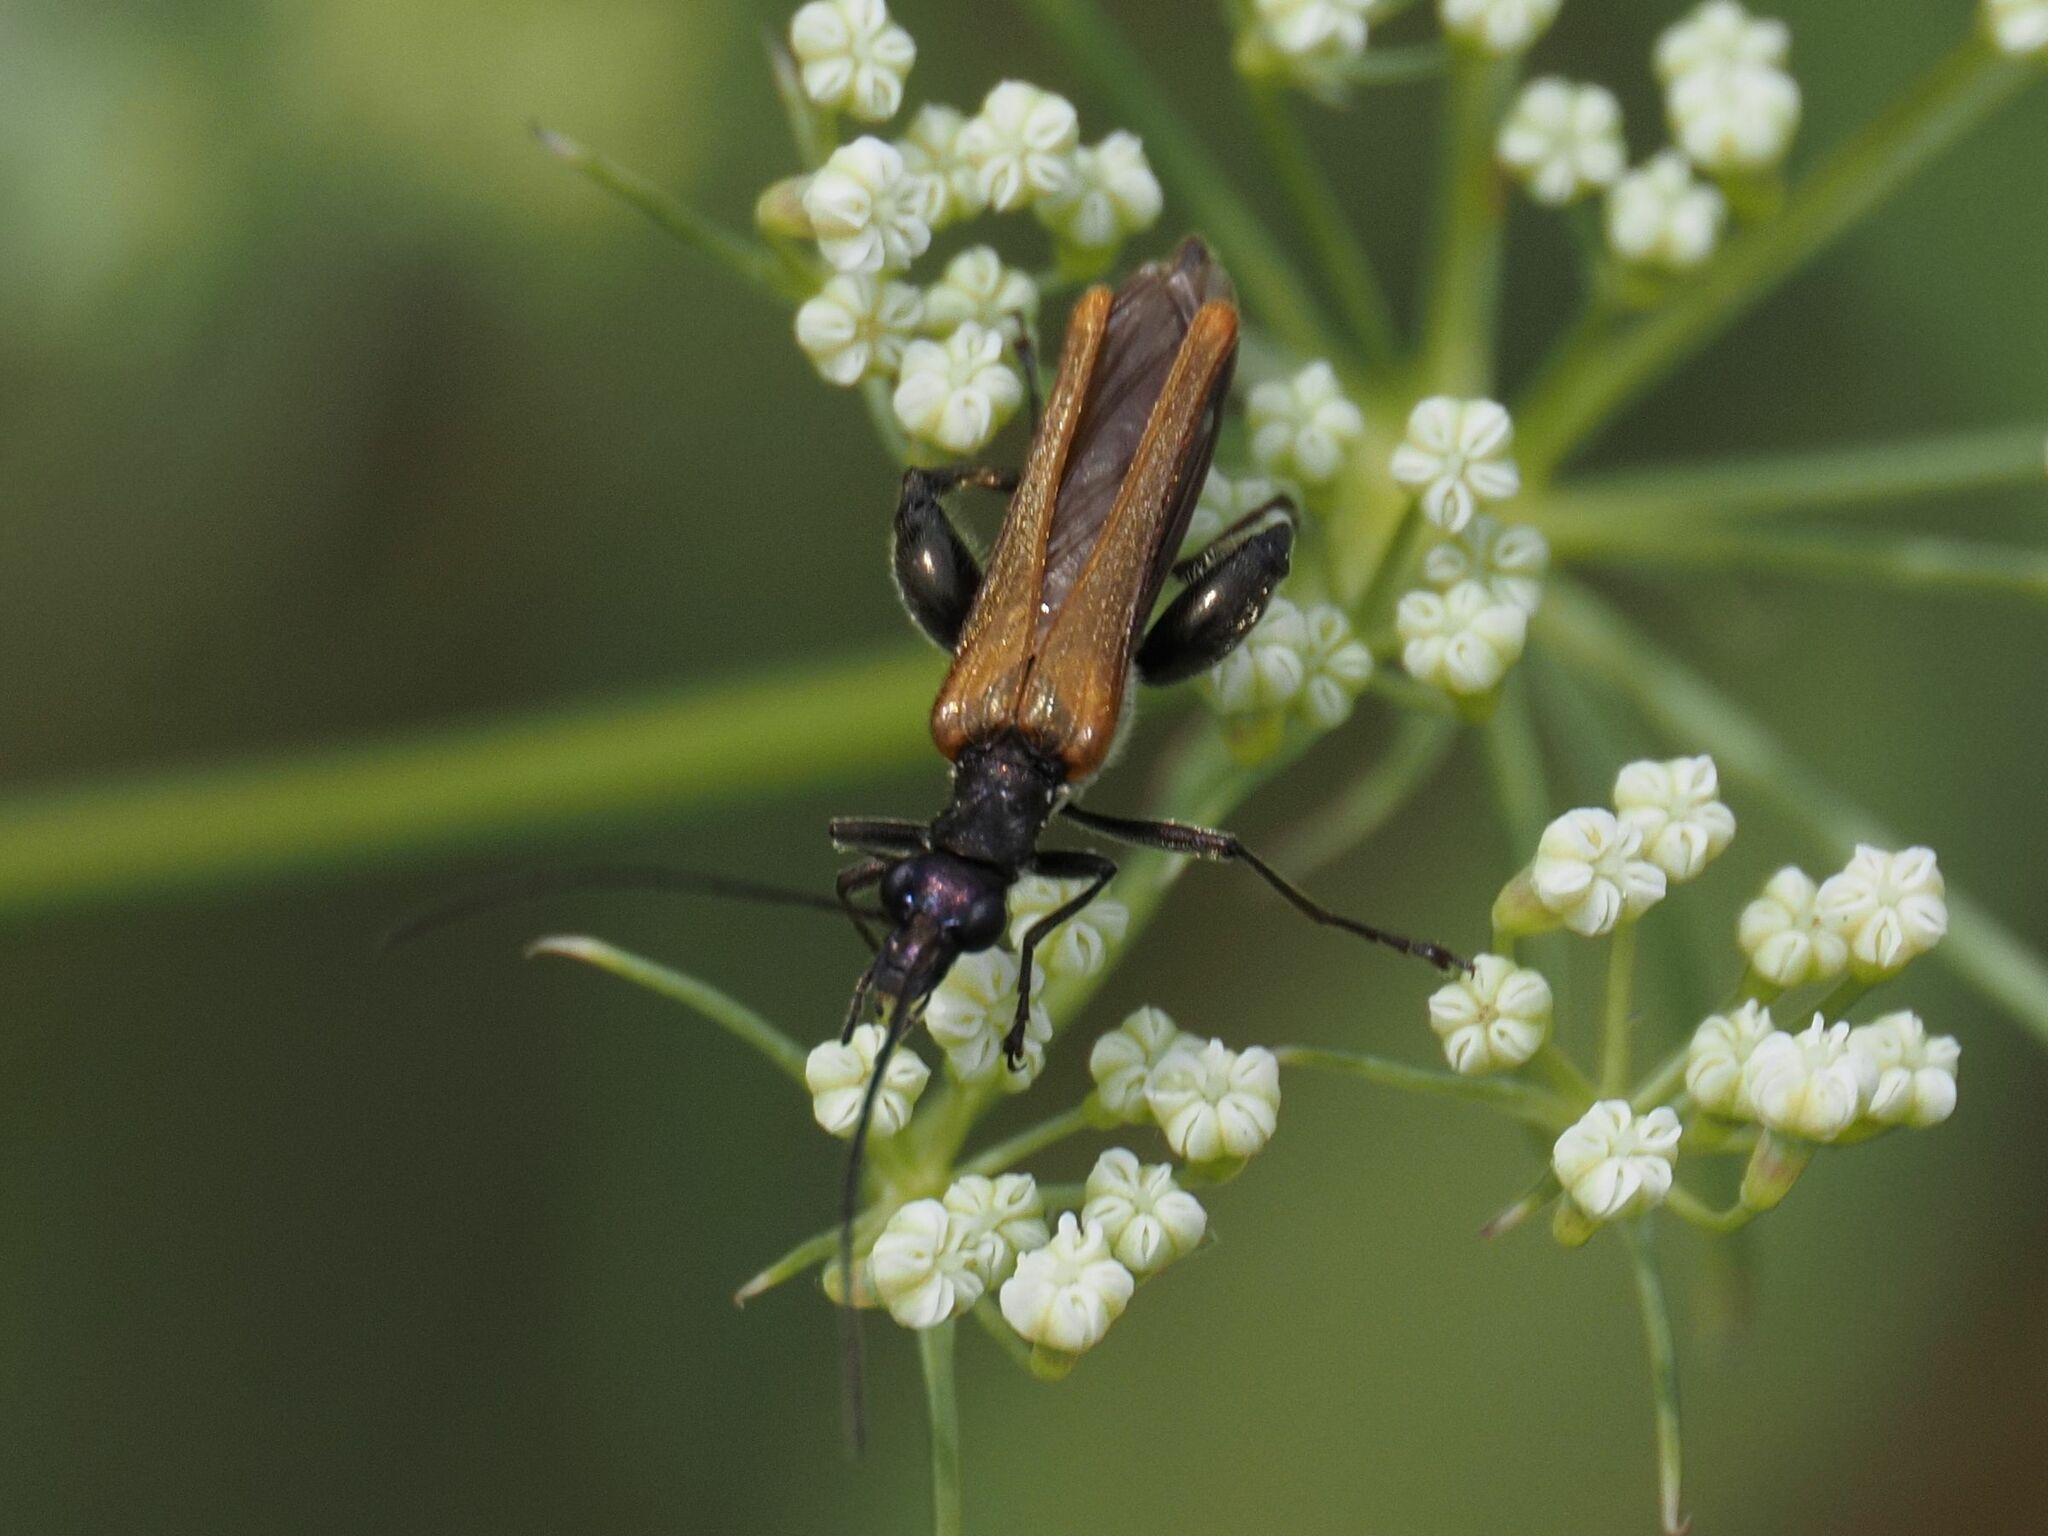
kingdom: Animalia
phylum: Arthropoda
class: Insecta
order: Coleoptera
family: Oedemeridae
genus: Oedemera
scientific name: Oedemera femorata
